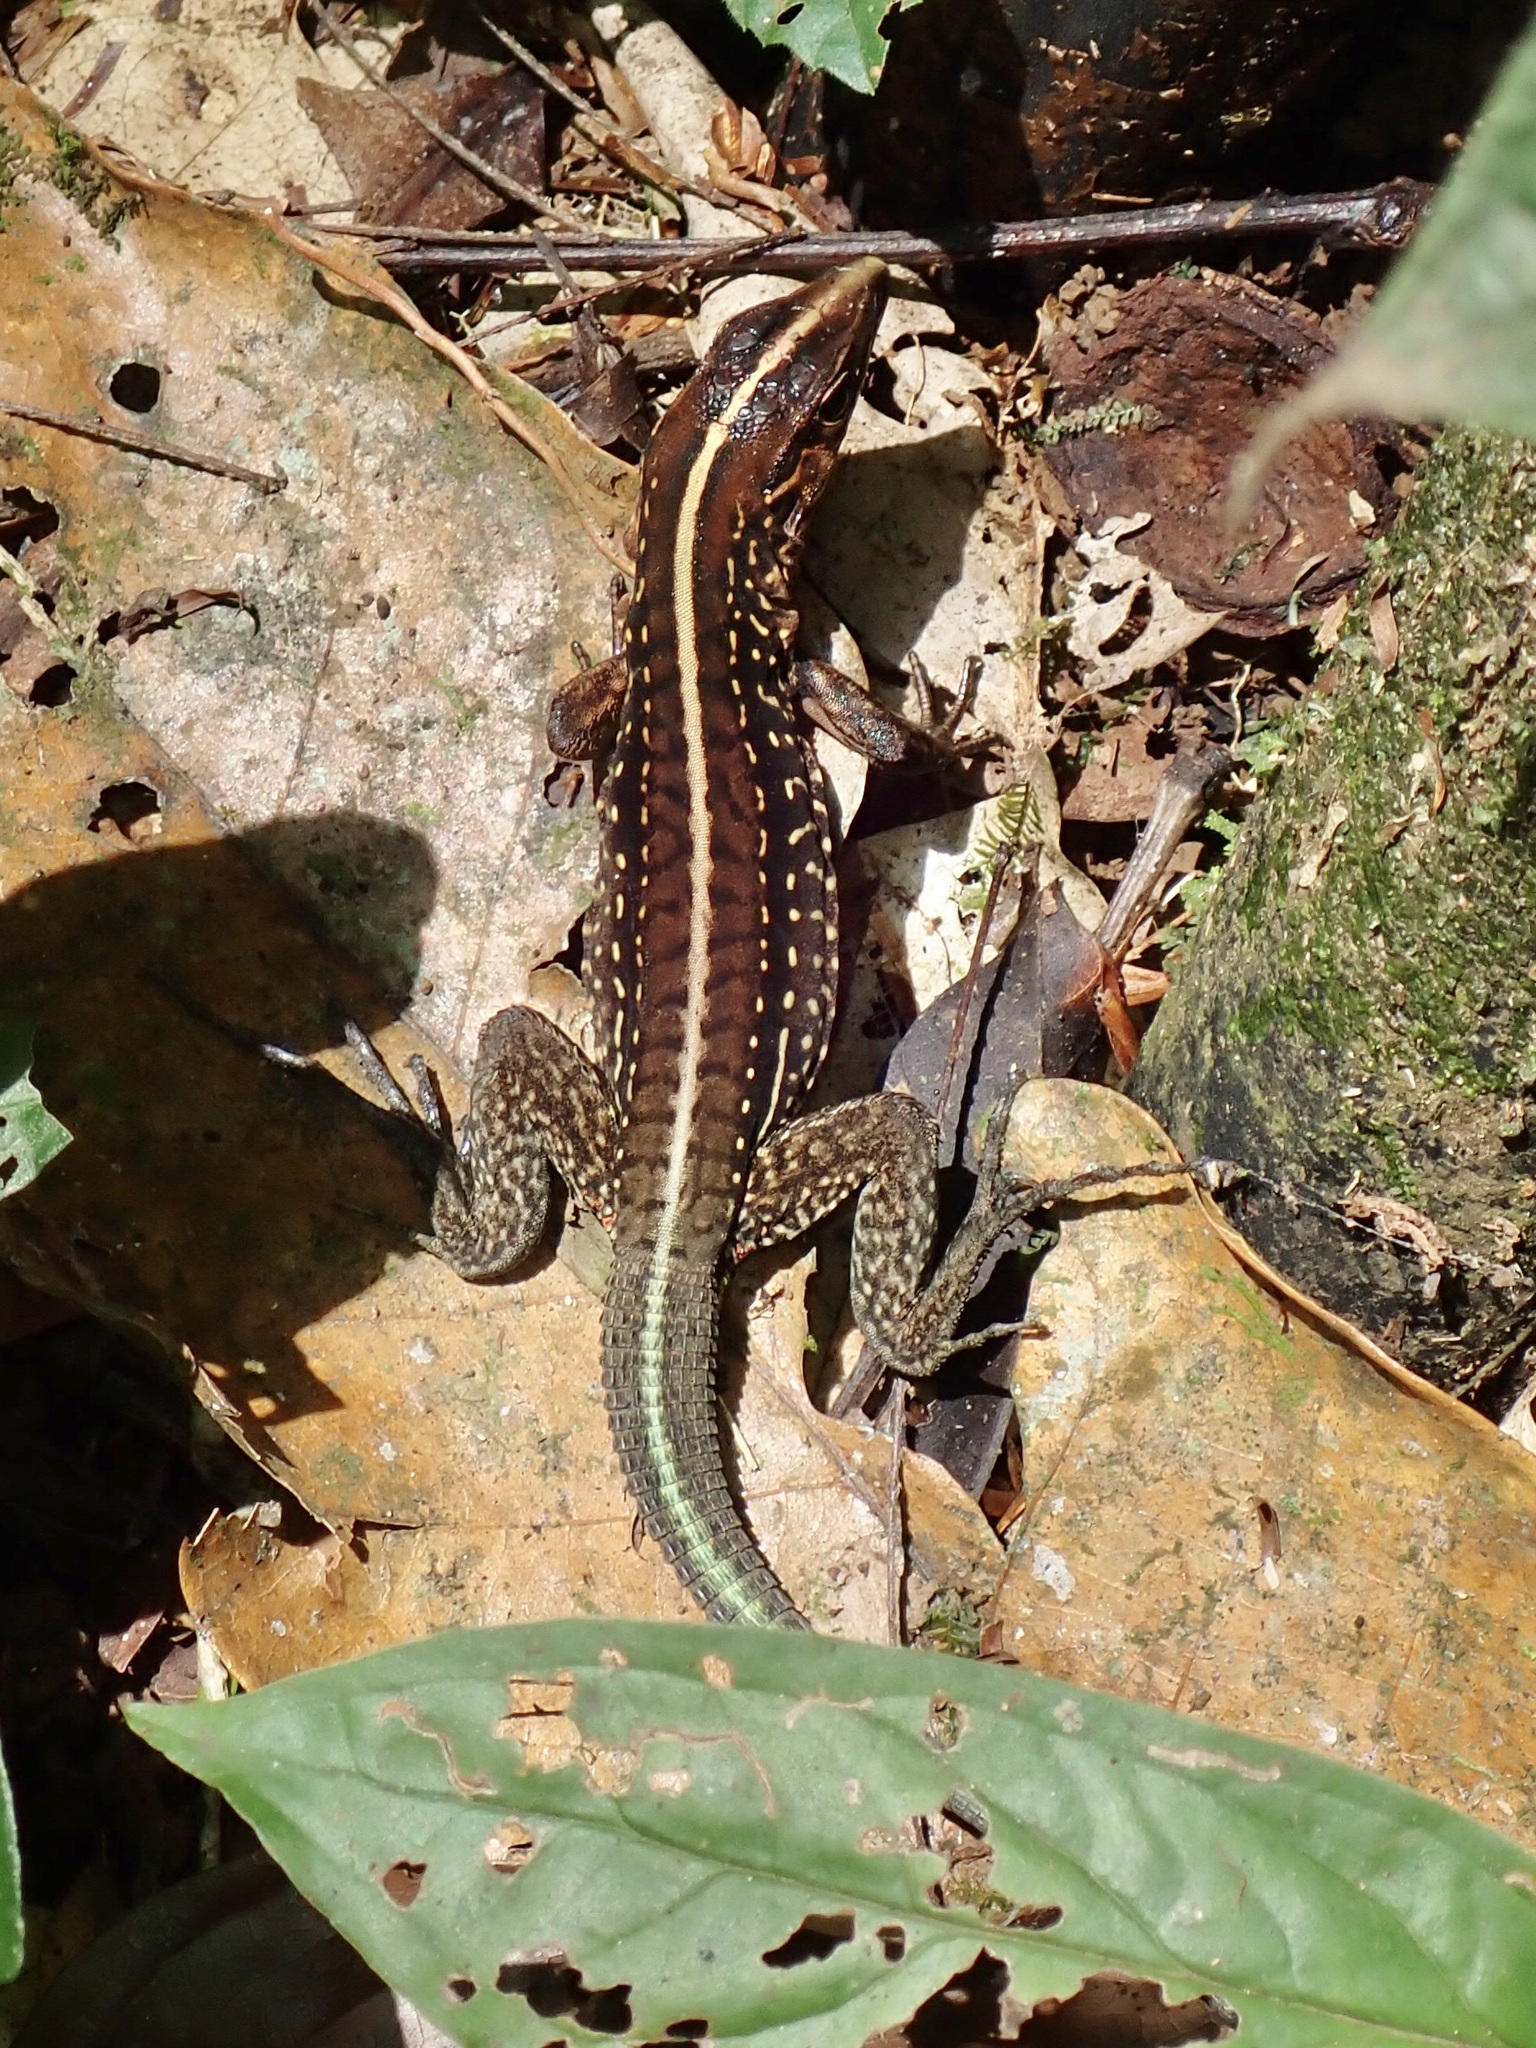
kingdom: Animalia
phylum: Chordata
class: Squamata
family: Teiidae
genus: Holcosus
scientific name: Holcosus festivus
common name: Middle american ameiva
